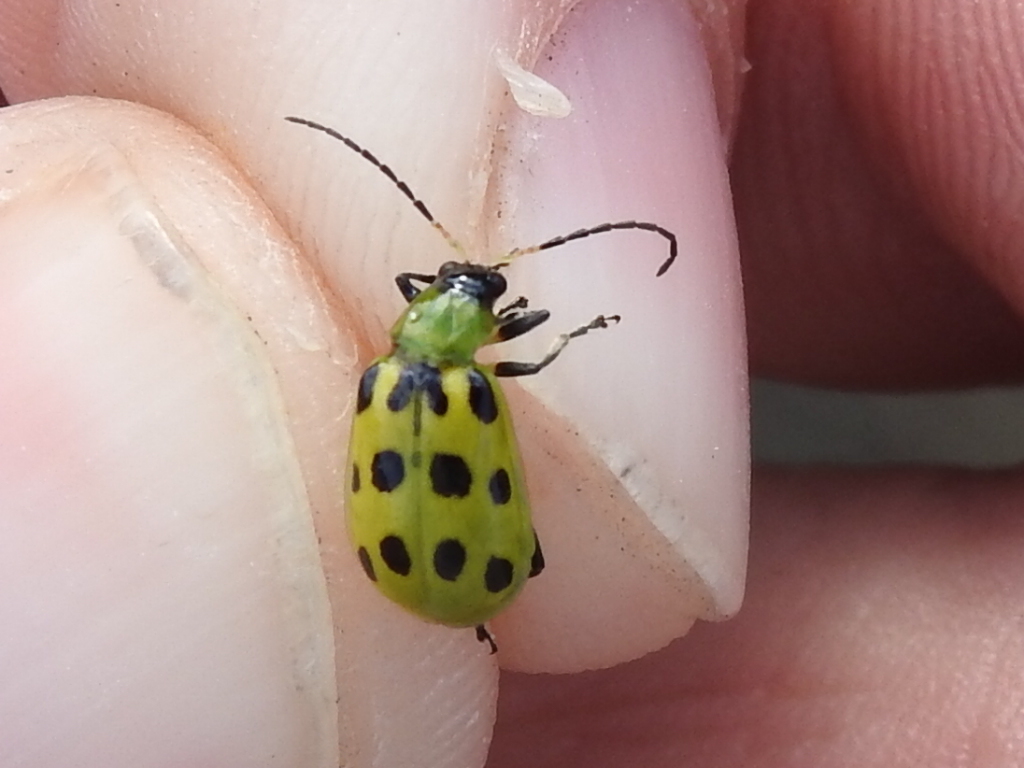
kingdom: Animalia
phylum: Arthropoda
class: Insecta
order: Coleoptera
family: Chrysomelidae
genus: Diabrotica
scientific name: Diabrotica undecimpunctata
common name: Spotted cucumber beetle
